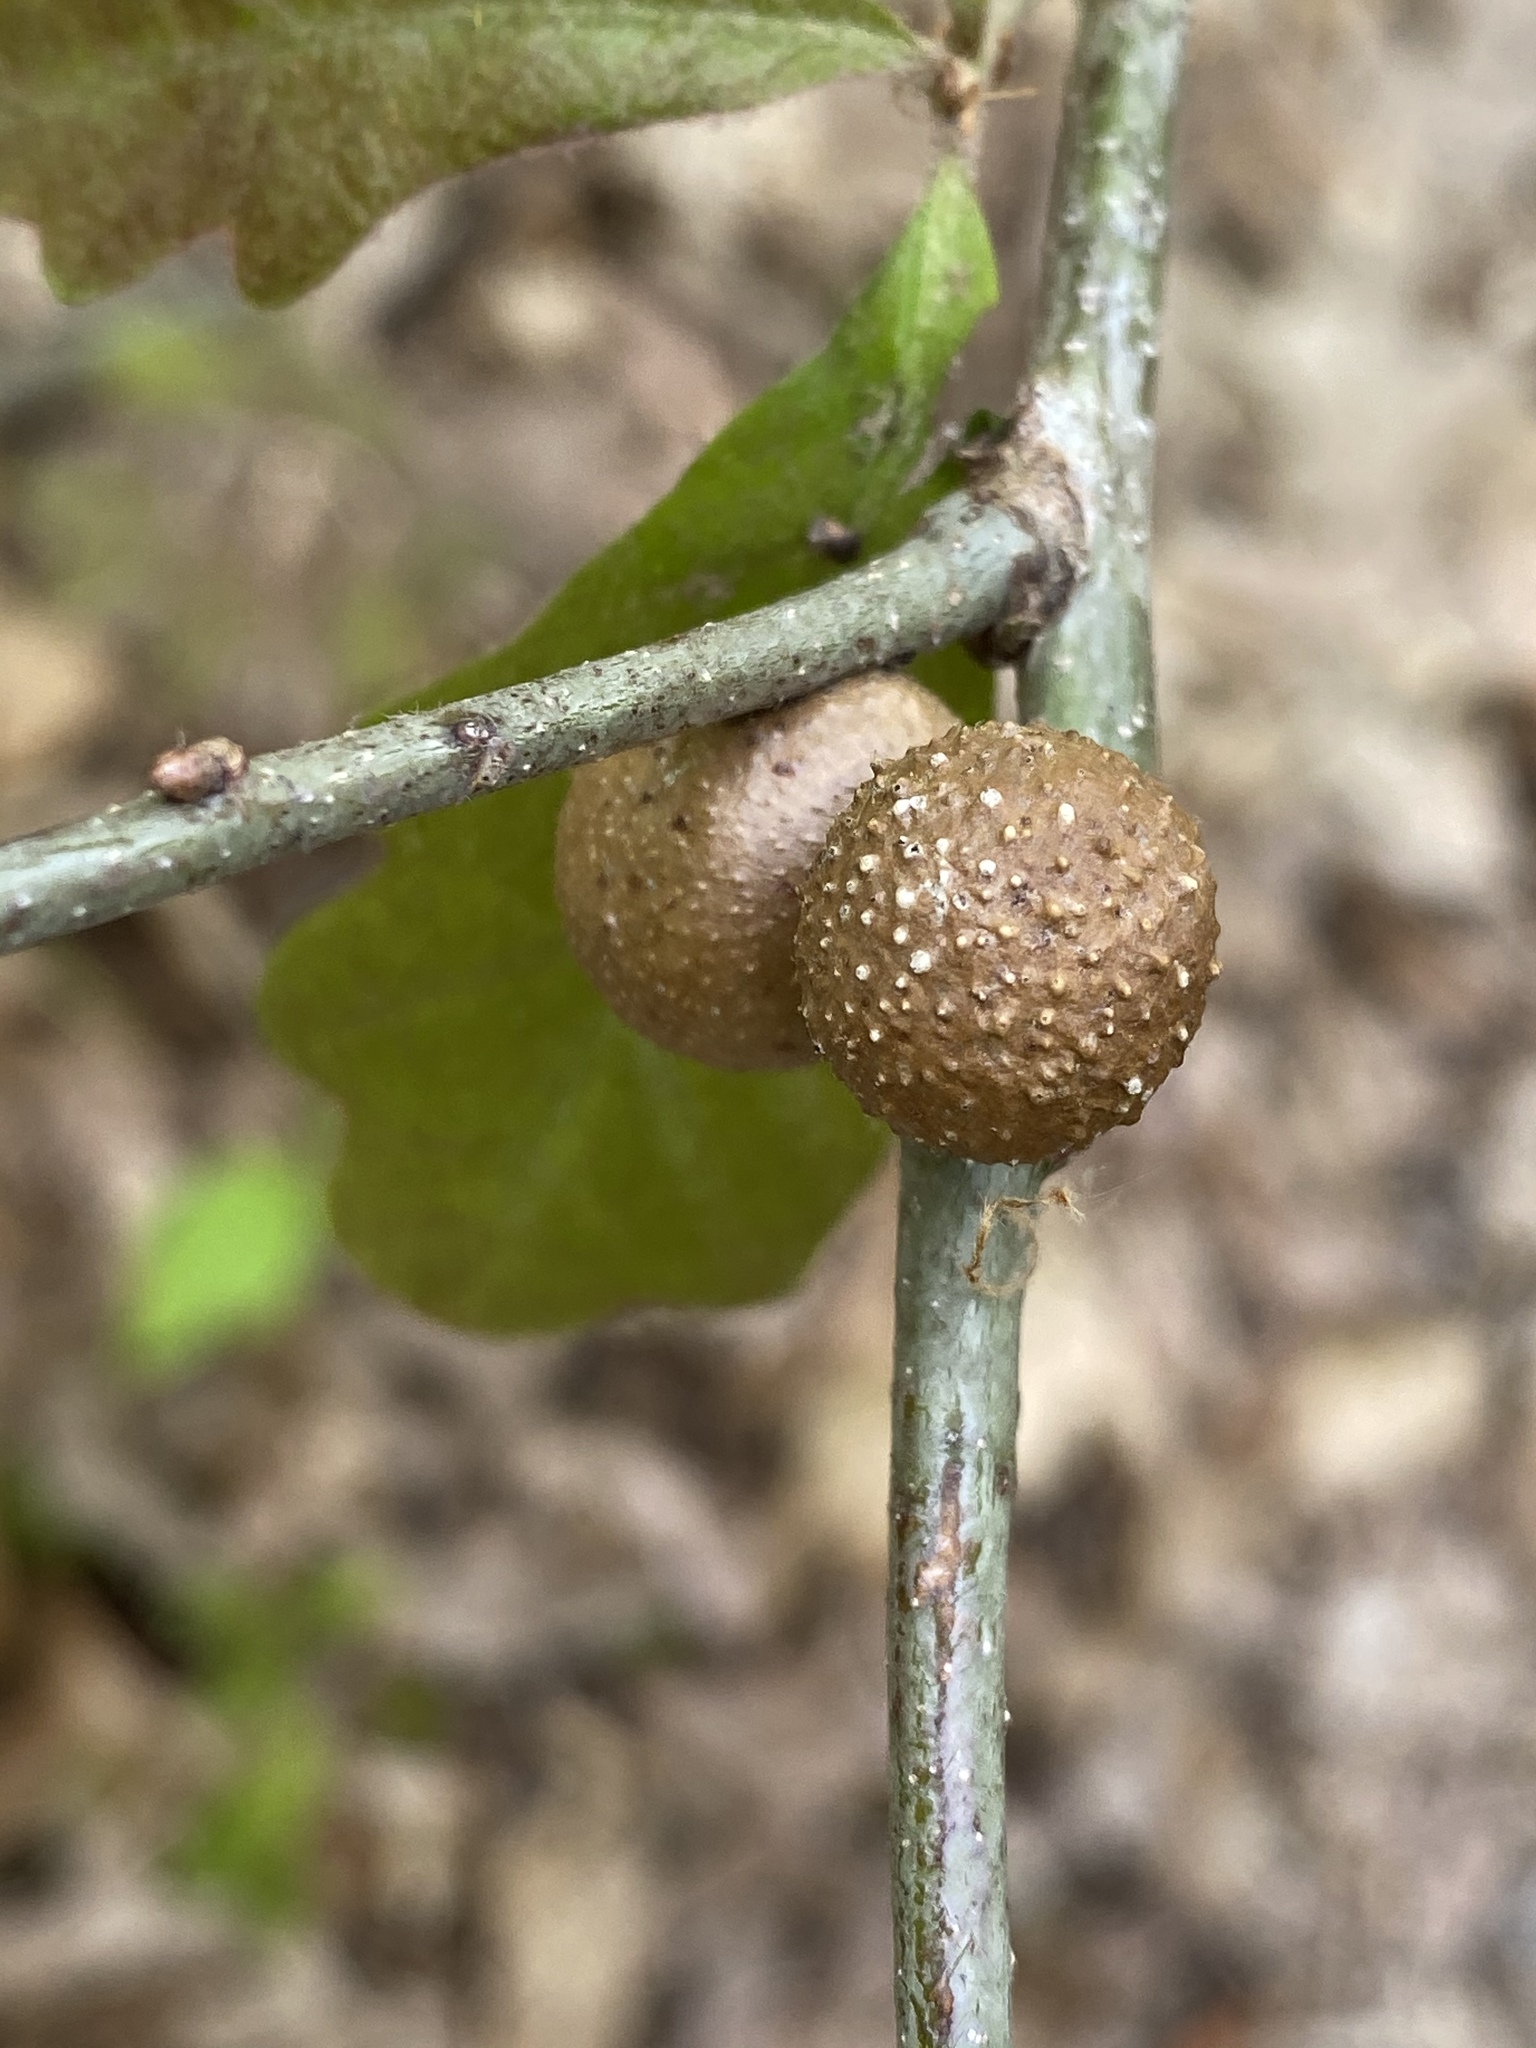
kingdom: Animalia
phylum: Arthropoda
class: Insecta
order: Hymenoptera
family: Cynipidae
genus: Disholcaspis
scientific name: Disholcaspis quercusglobulus
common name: Round bullet gall wasp
